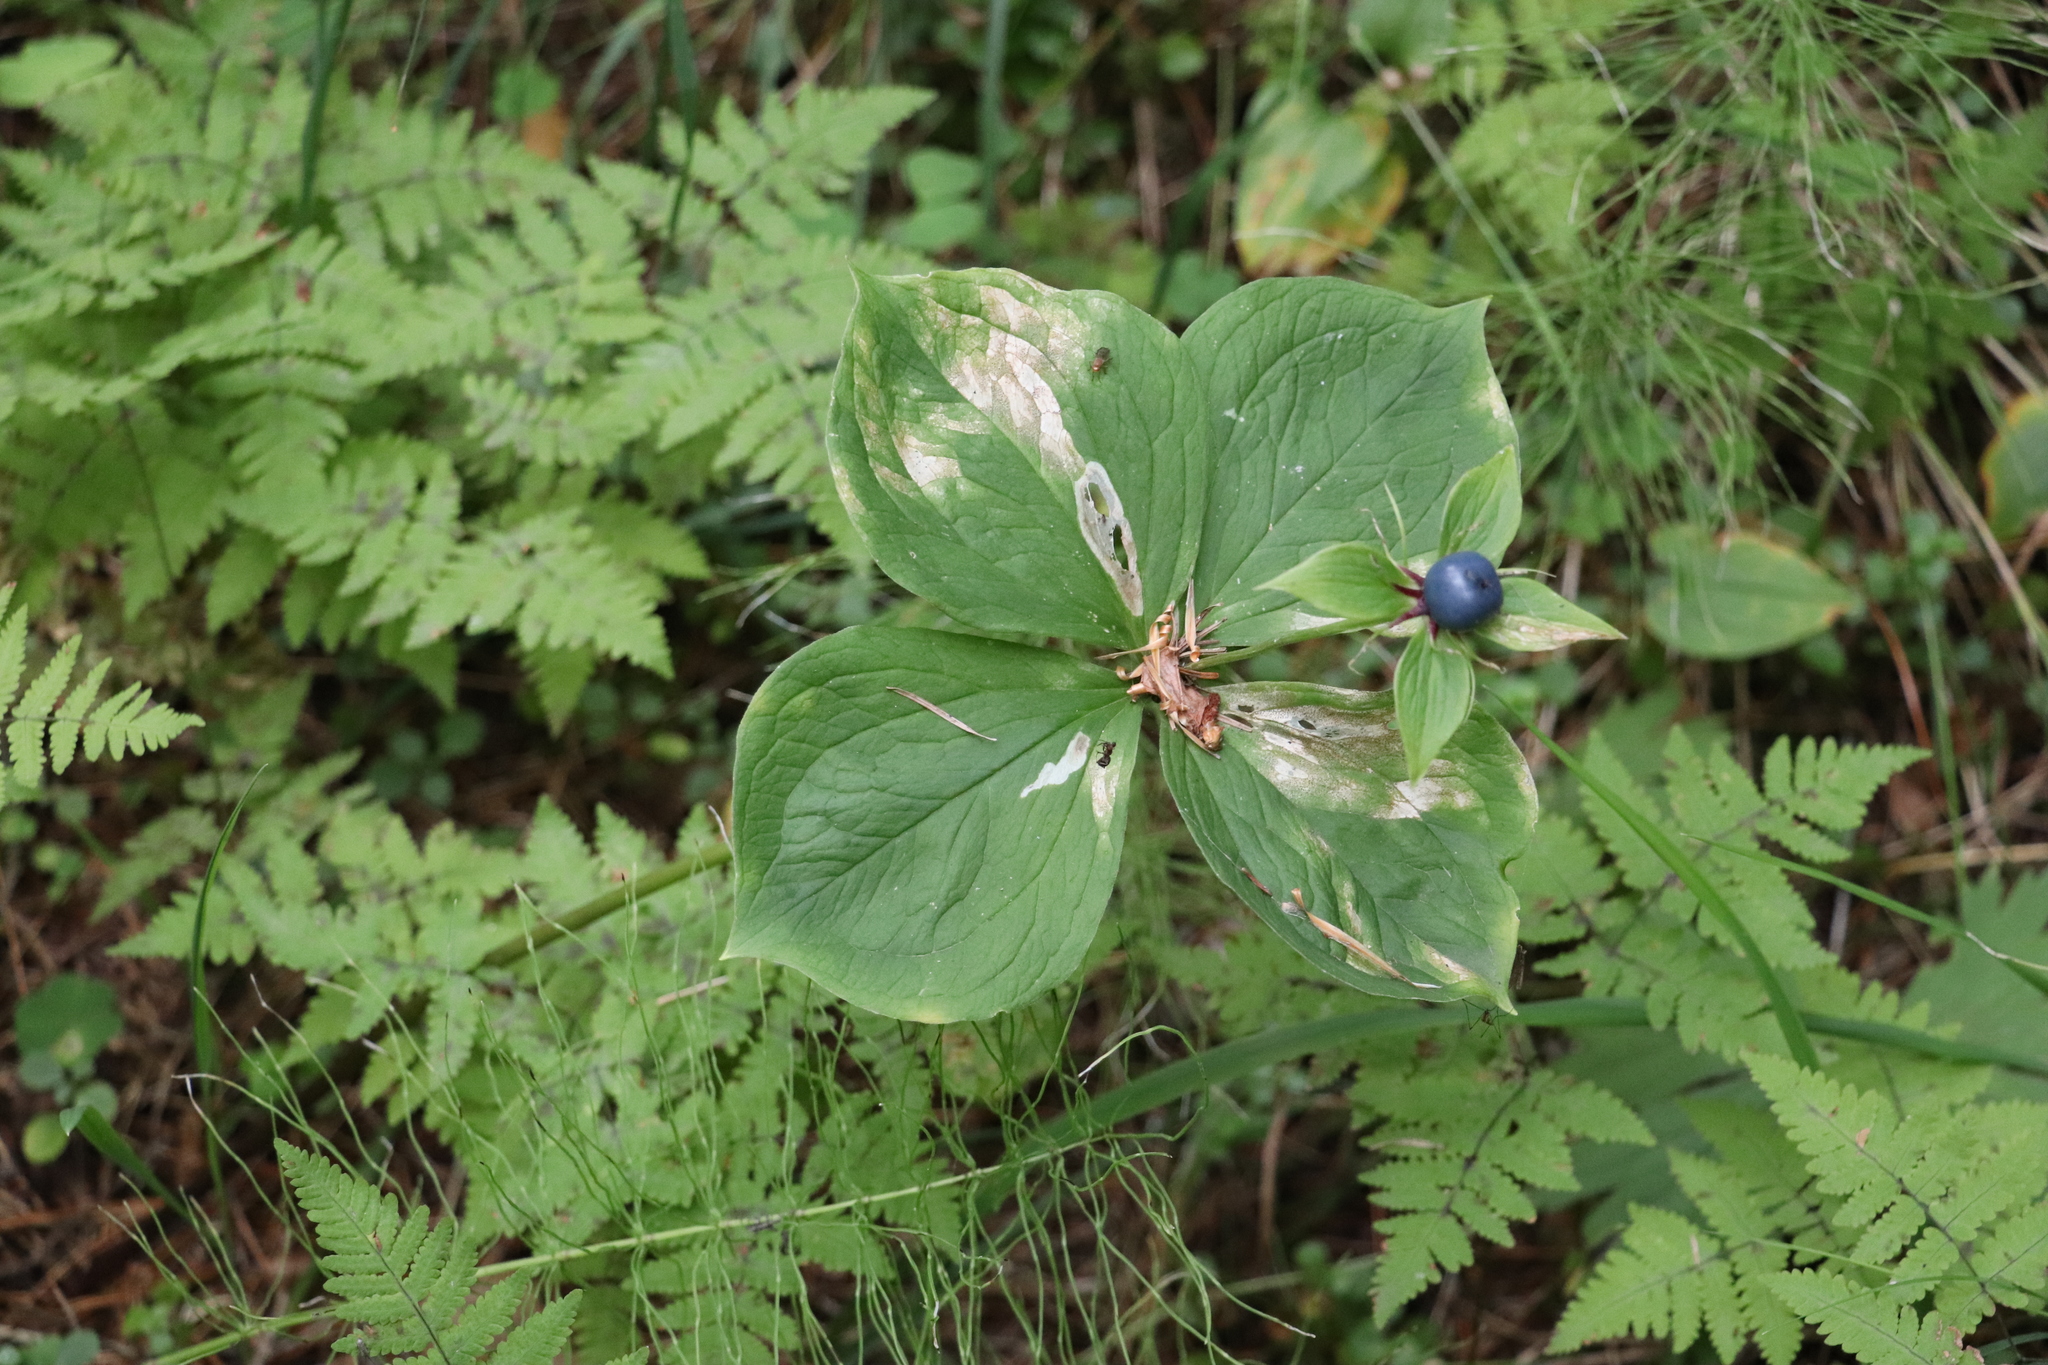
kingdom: Plantae
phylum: Tracheophyta
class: Liliopsida
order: Liliales
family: Melanthiaceae
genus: Paris
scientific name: Paris quadrifolia
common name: Herb-paris
